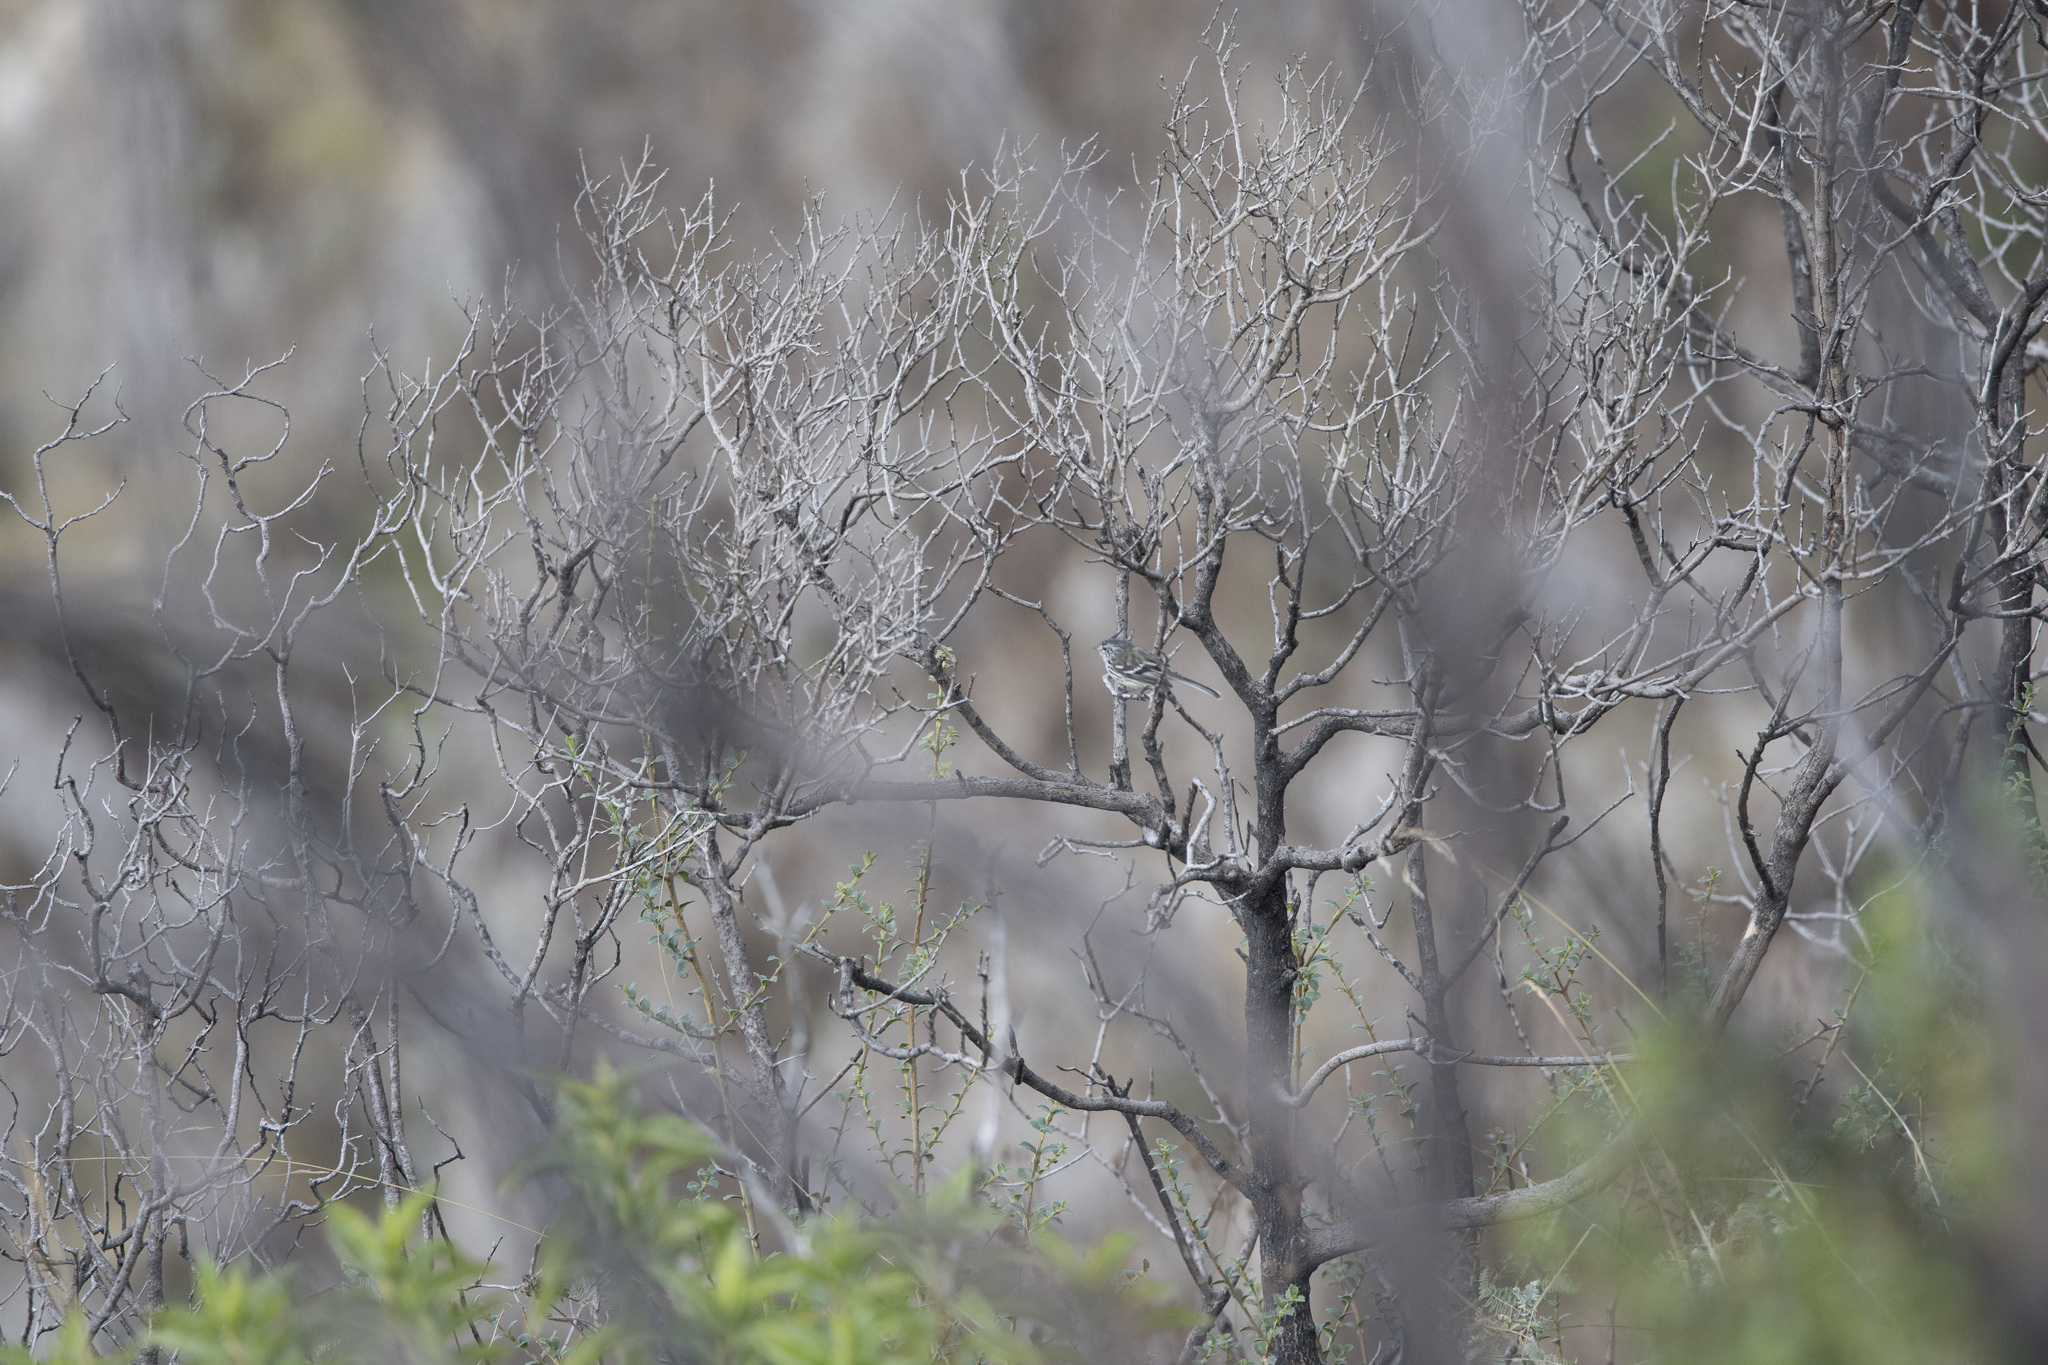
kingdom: Animalia
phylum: Chordata
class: Aves
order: Passeriformes
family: Tyrannidae
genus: Anairetes
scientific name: Anairetes flavirostris
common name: Yellow-billed tit-tyrant
